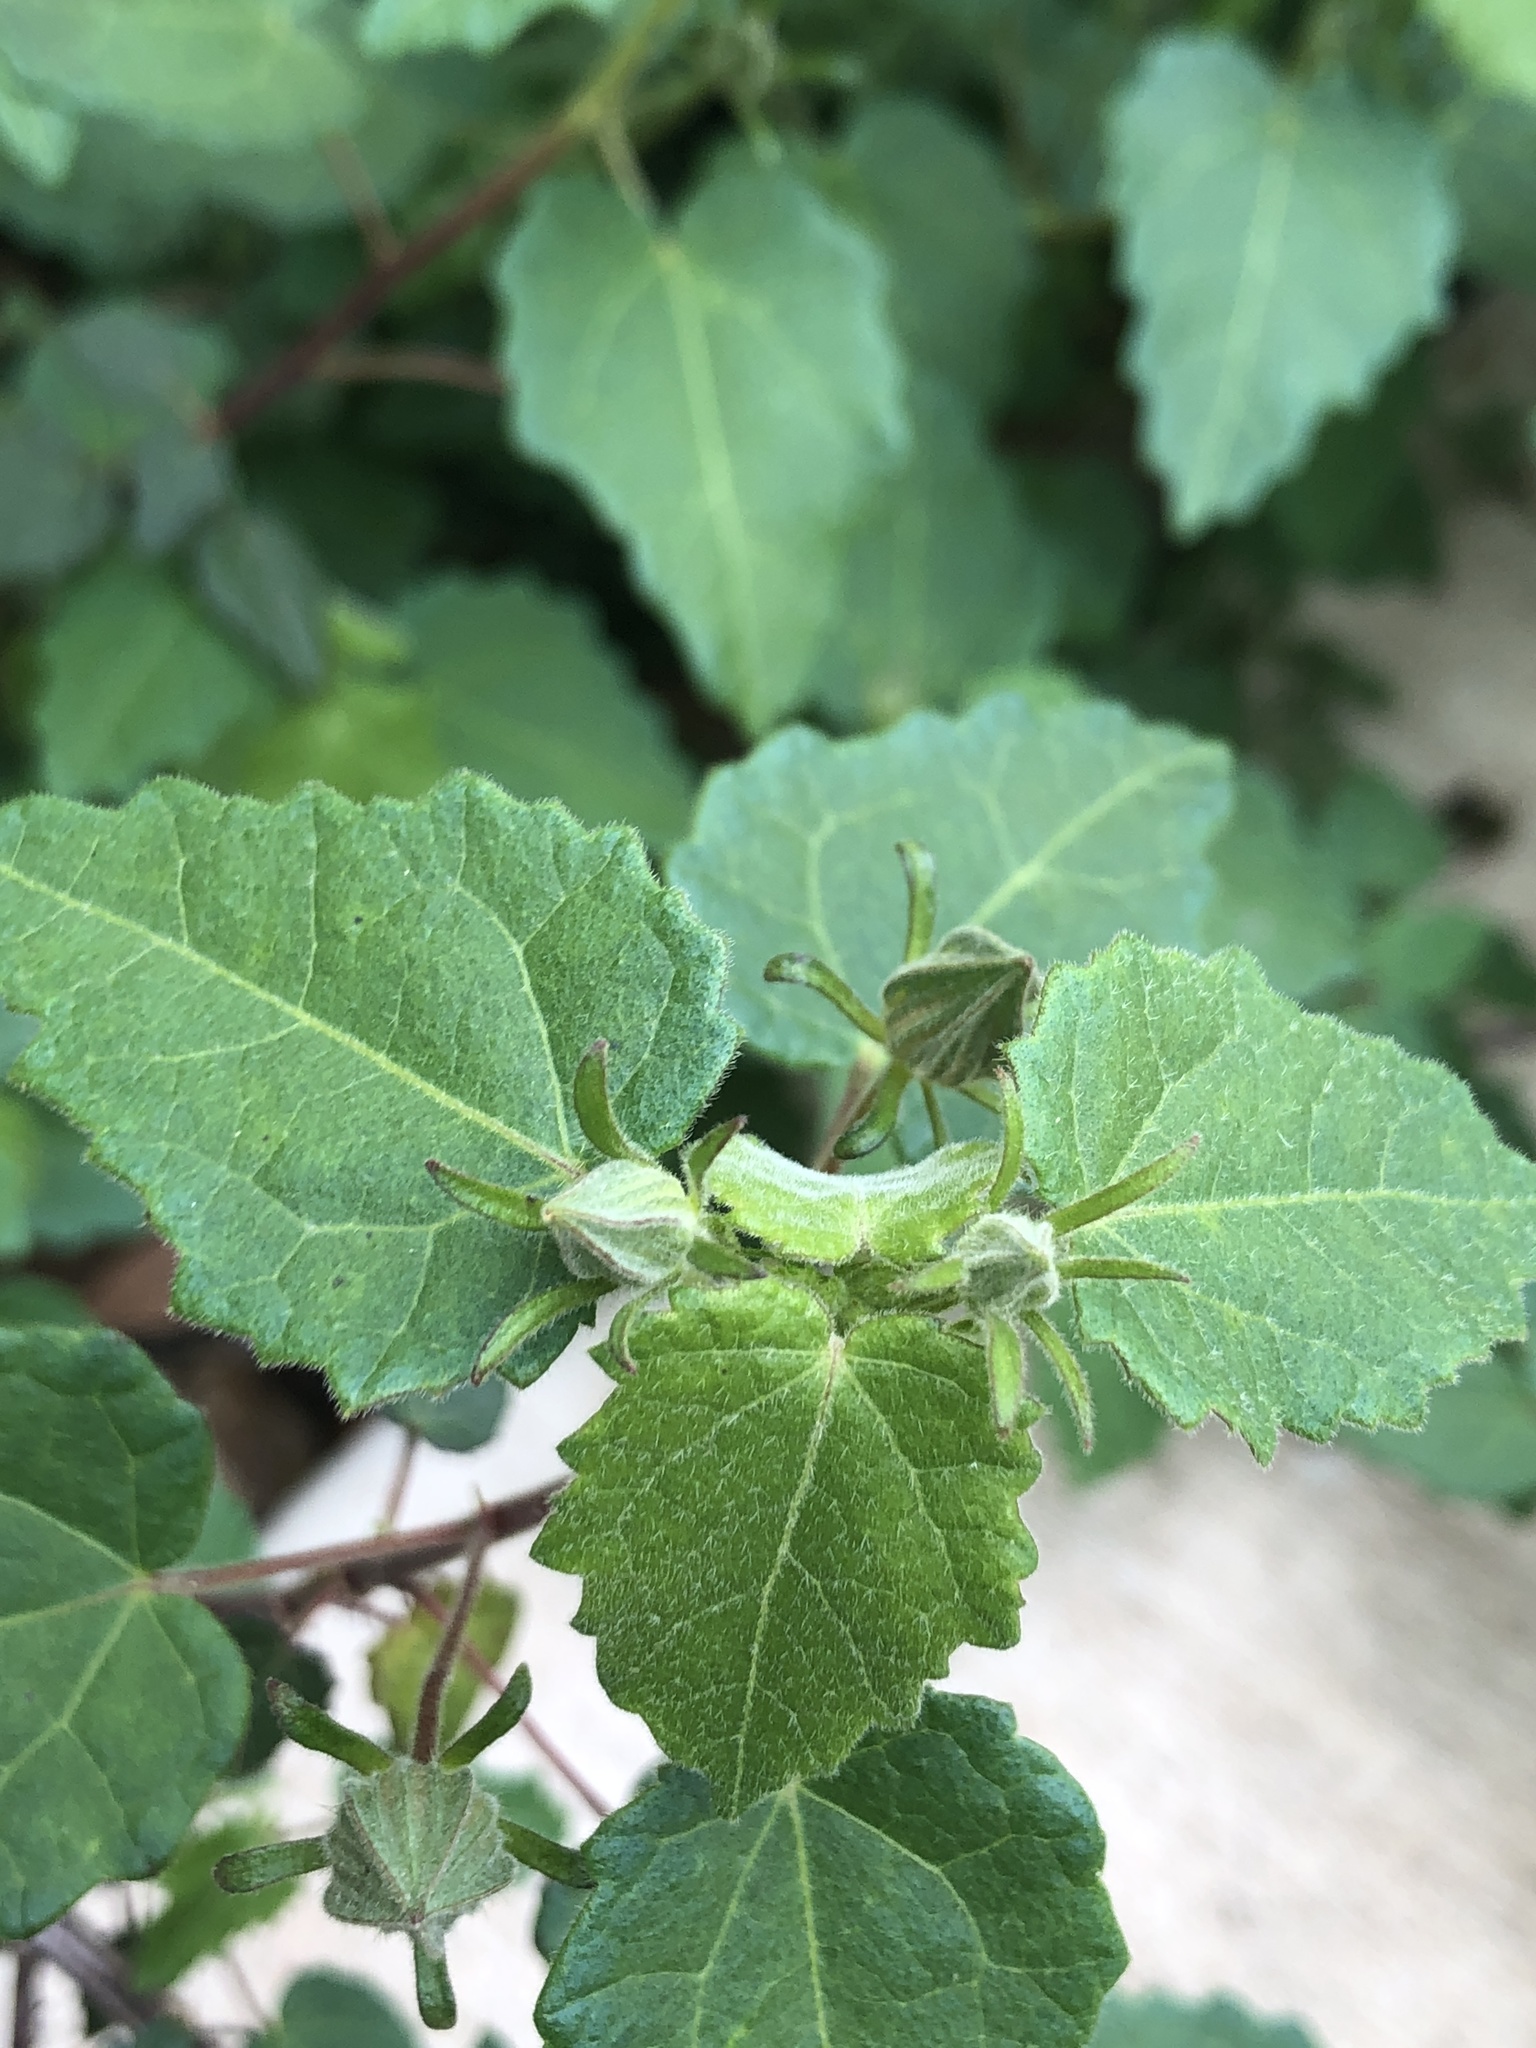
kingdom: Plantae
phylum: Tracheophyta
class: Magnoliopsida
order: Malvales
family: Malvaceae
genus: Pavonia
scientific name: Pavonia lasiopetala
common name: Texas swamp-mallow
